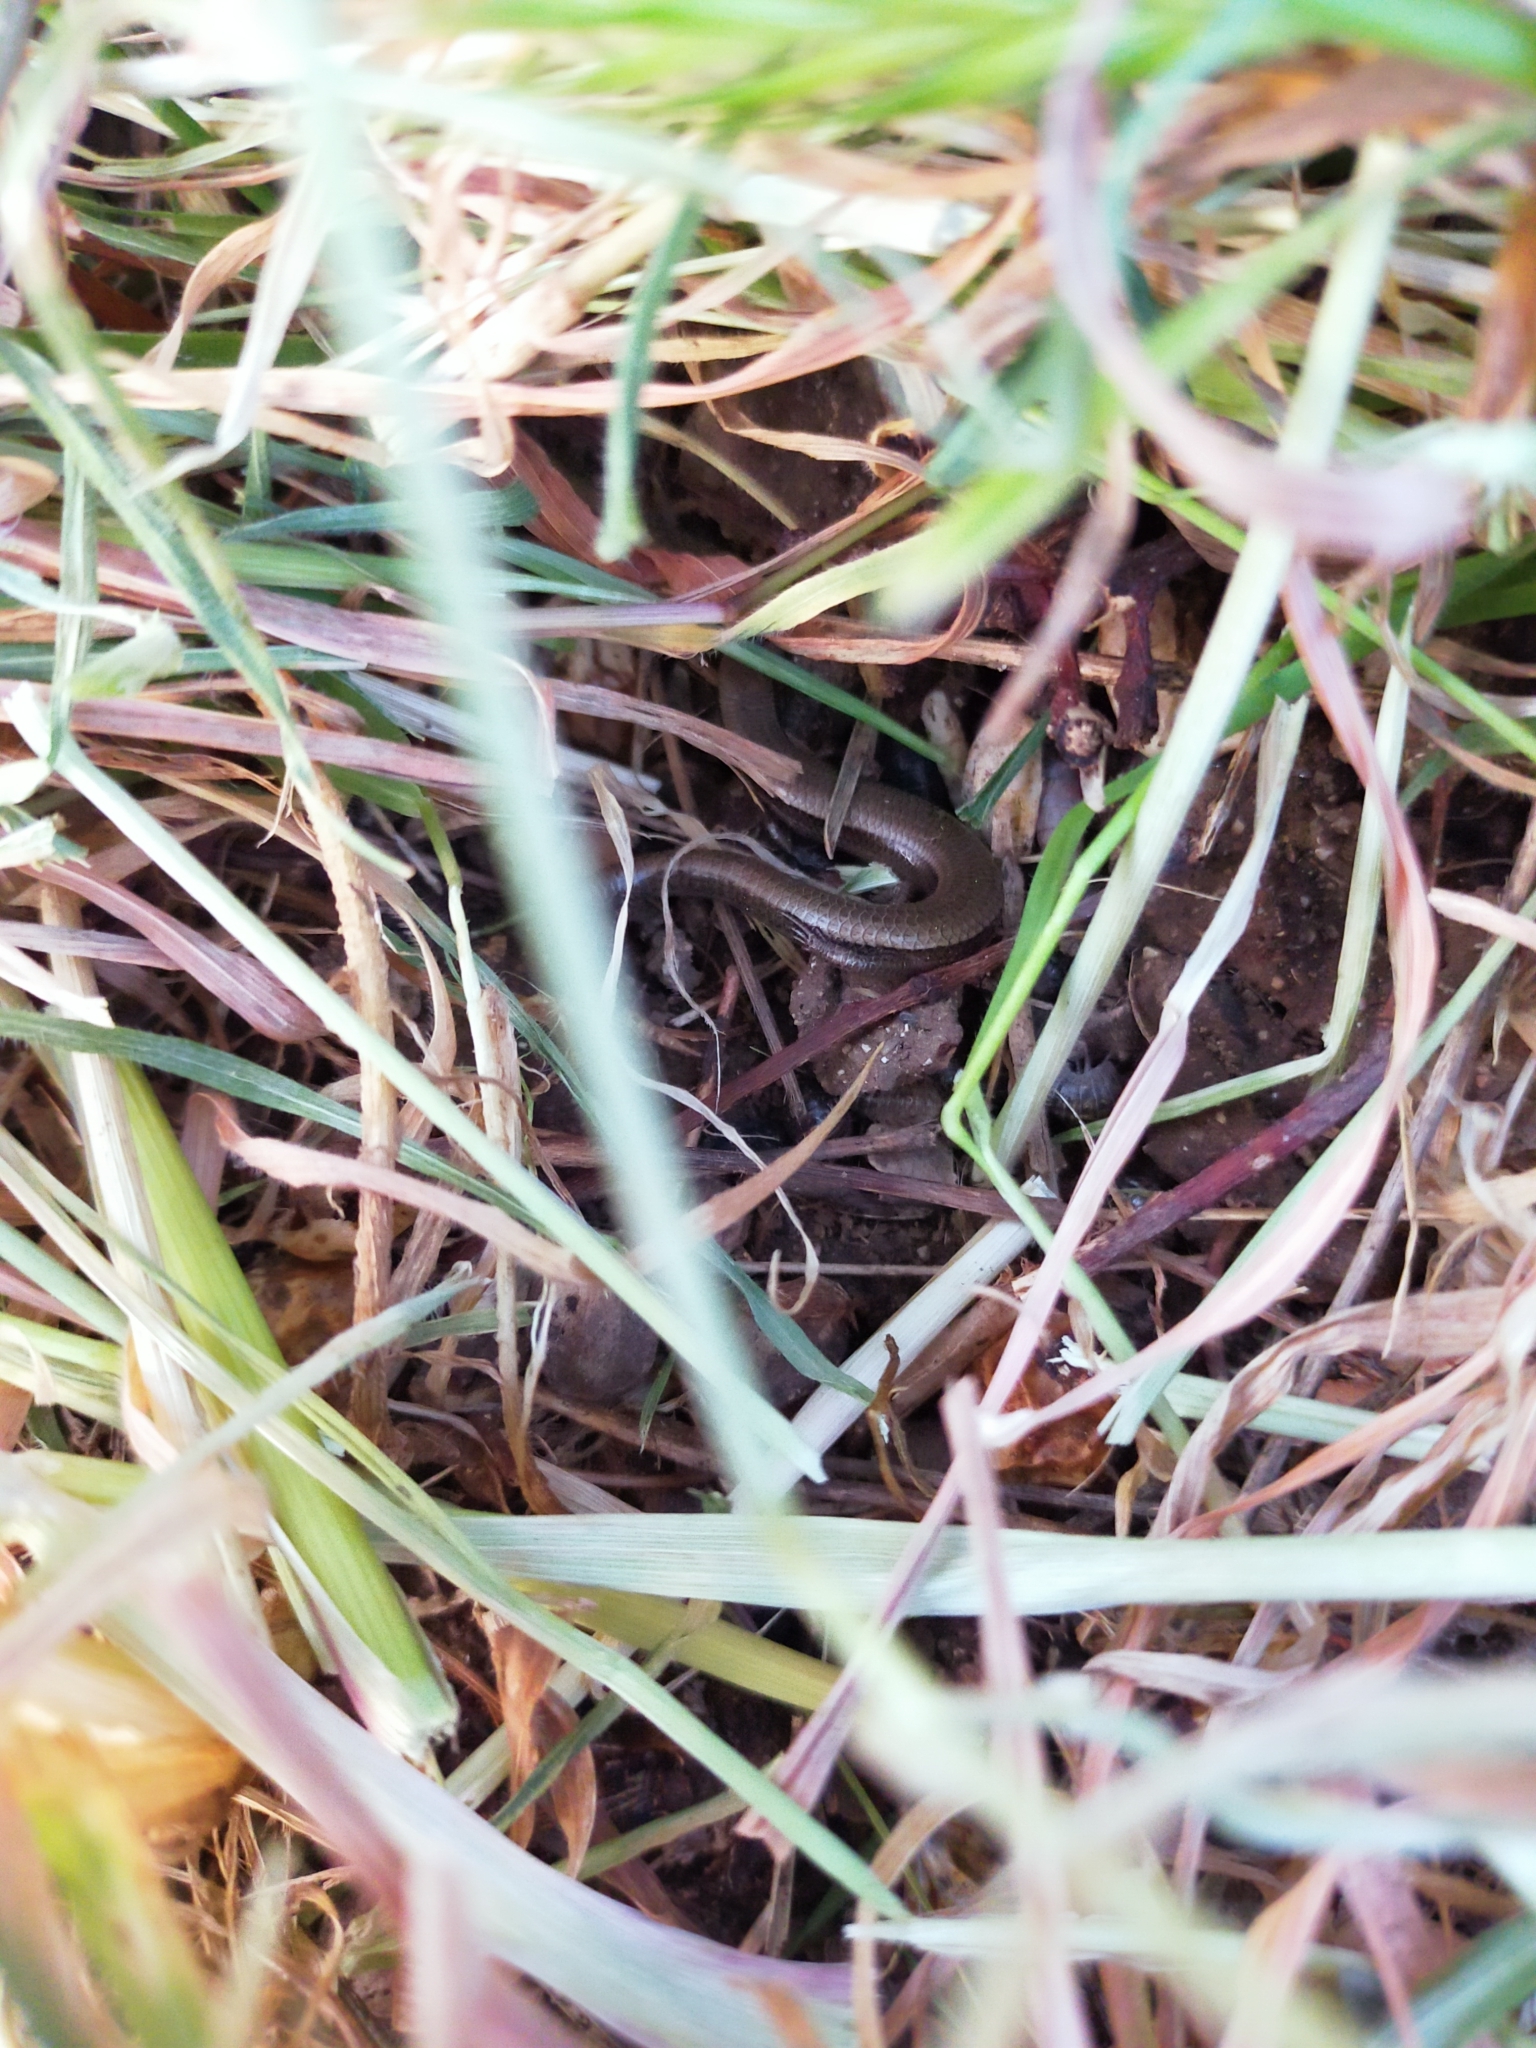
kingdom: Animalia
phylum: Chordata
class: Squamata
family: Scincidae
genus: Ablepharus
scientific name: Ablepharus kitaibelii
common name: Juniper skink
